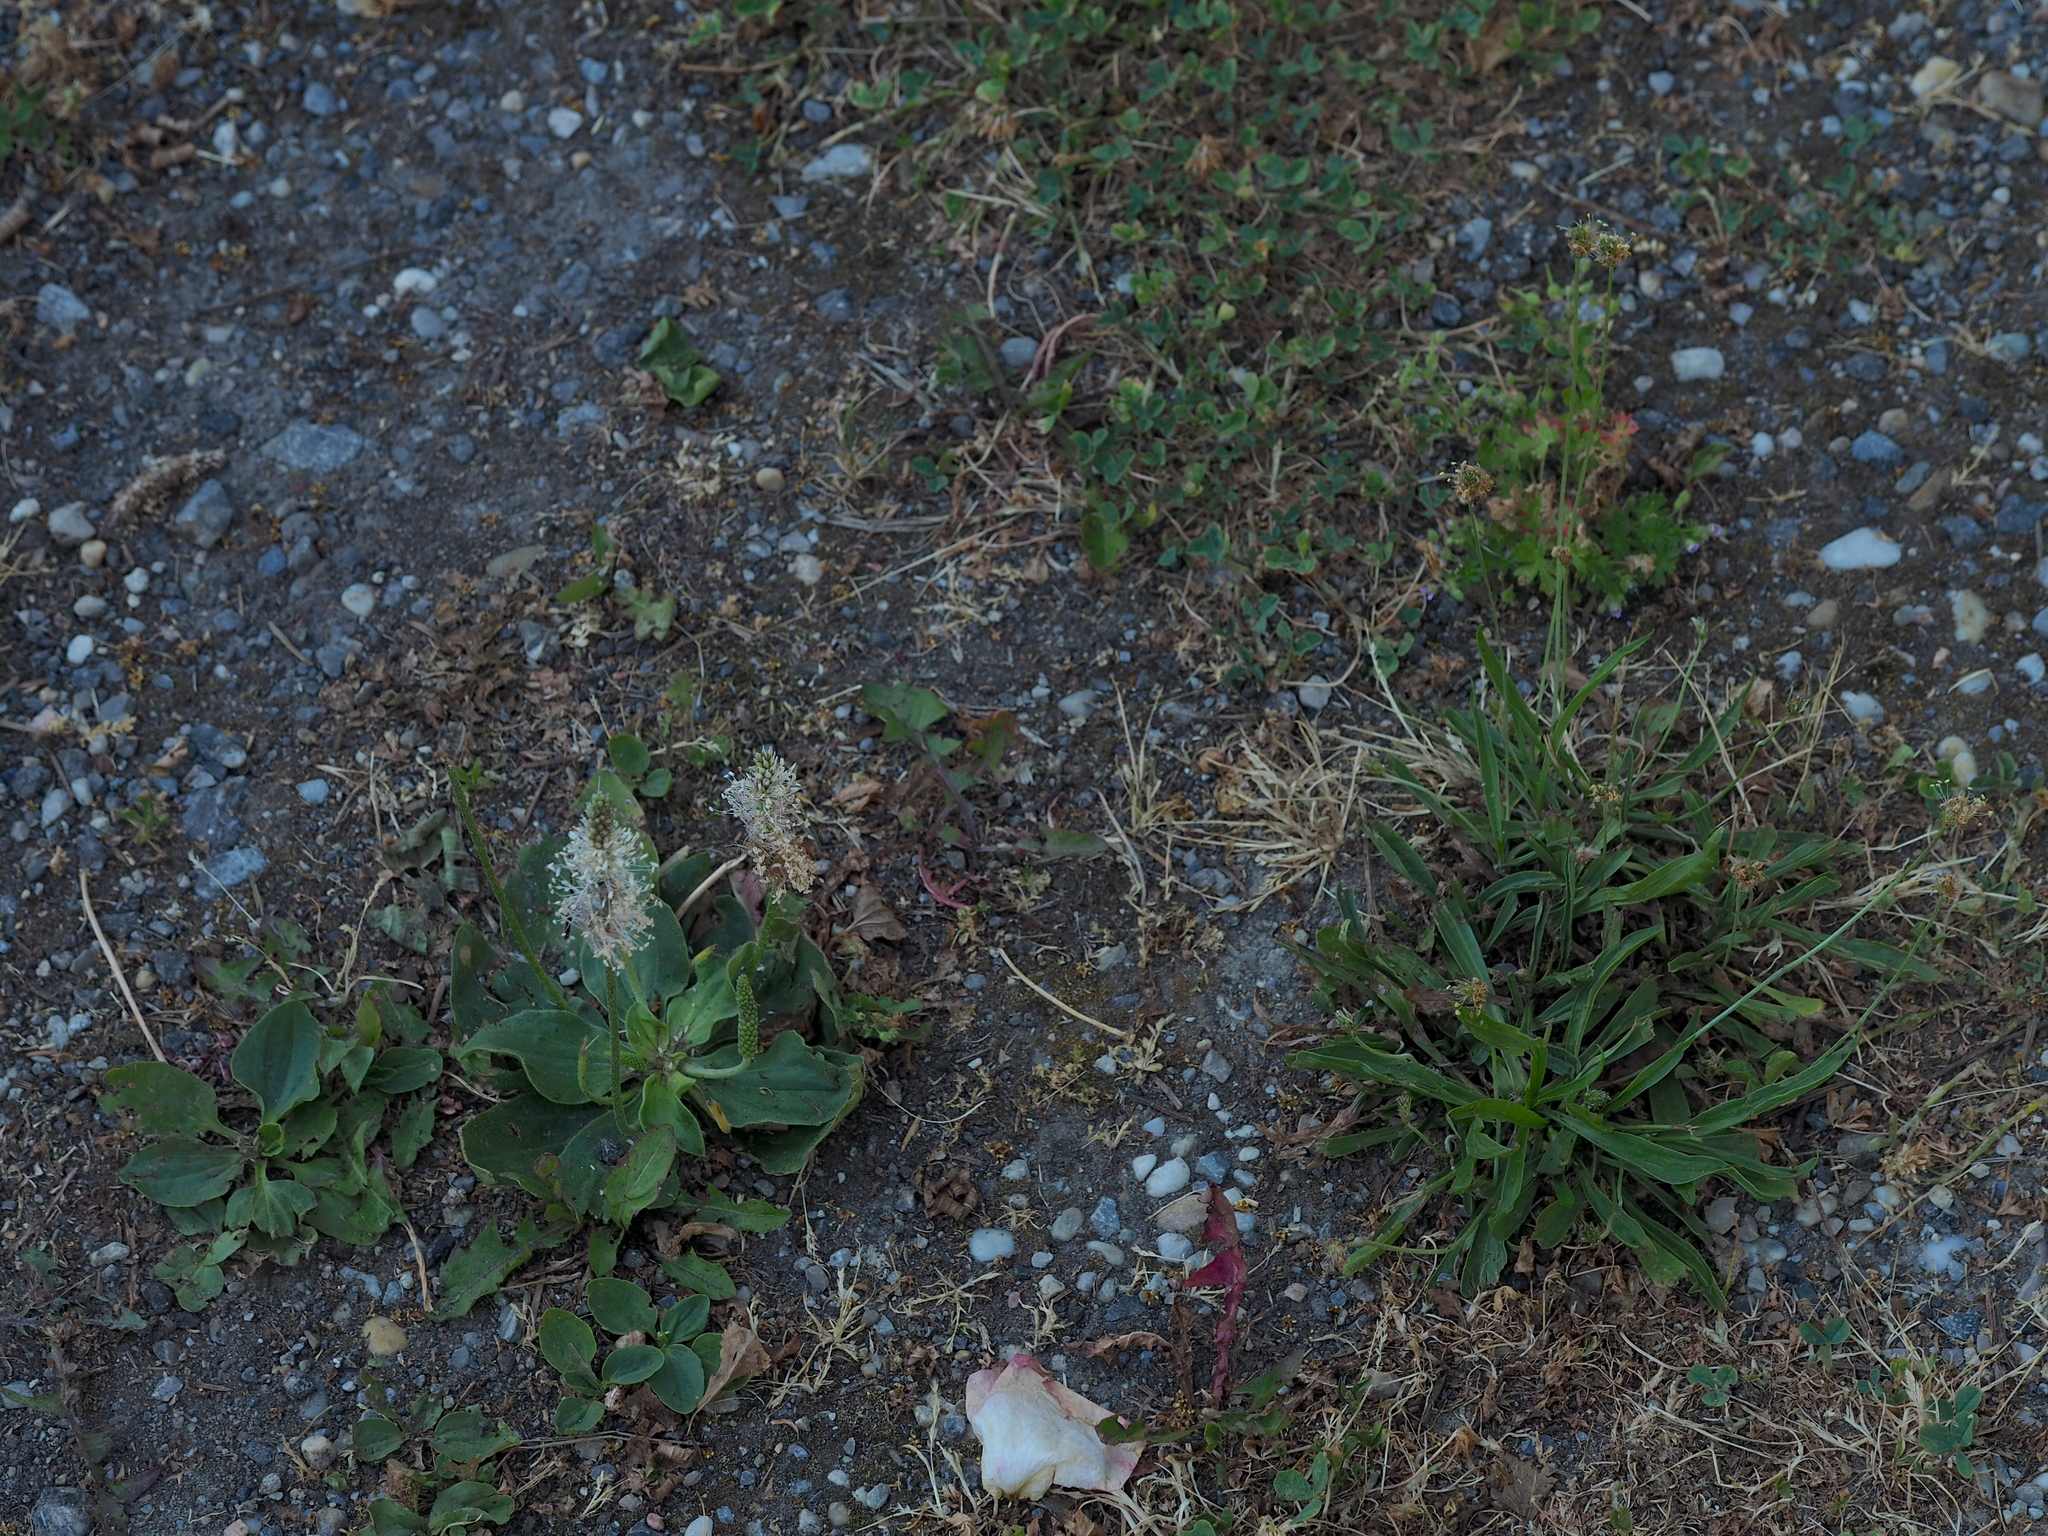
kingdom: Plantae
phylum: Tracheophyta
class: Magnoliopsida
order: Lamiales
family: Plantaginaceae
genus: Plantago
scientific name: Plantago media
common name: Hoary plantain
